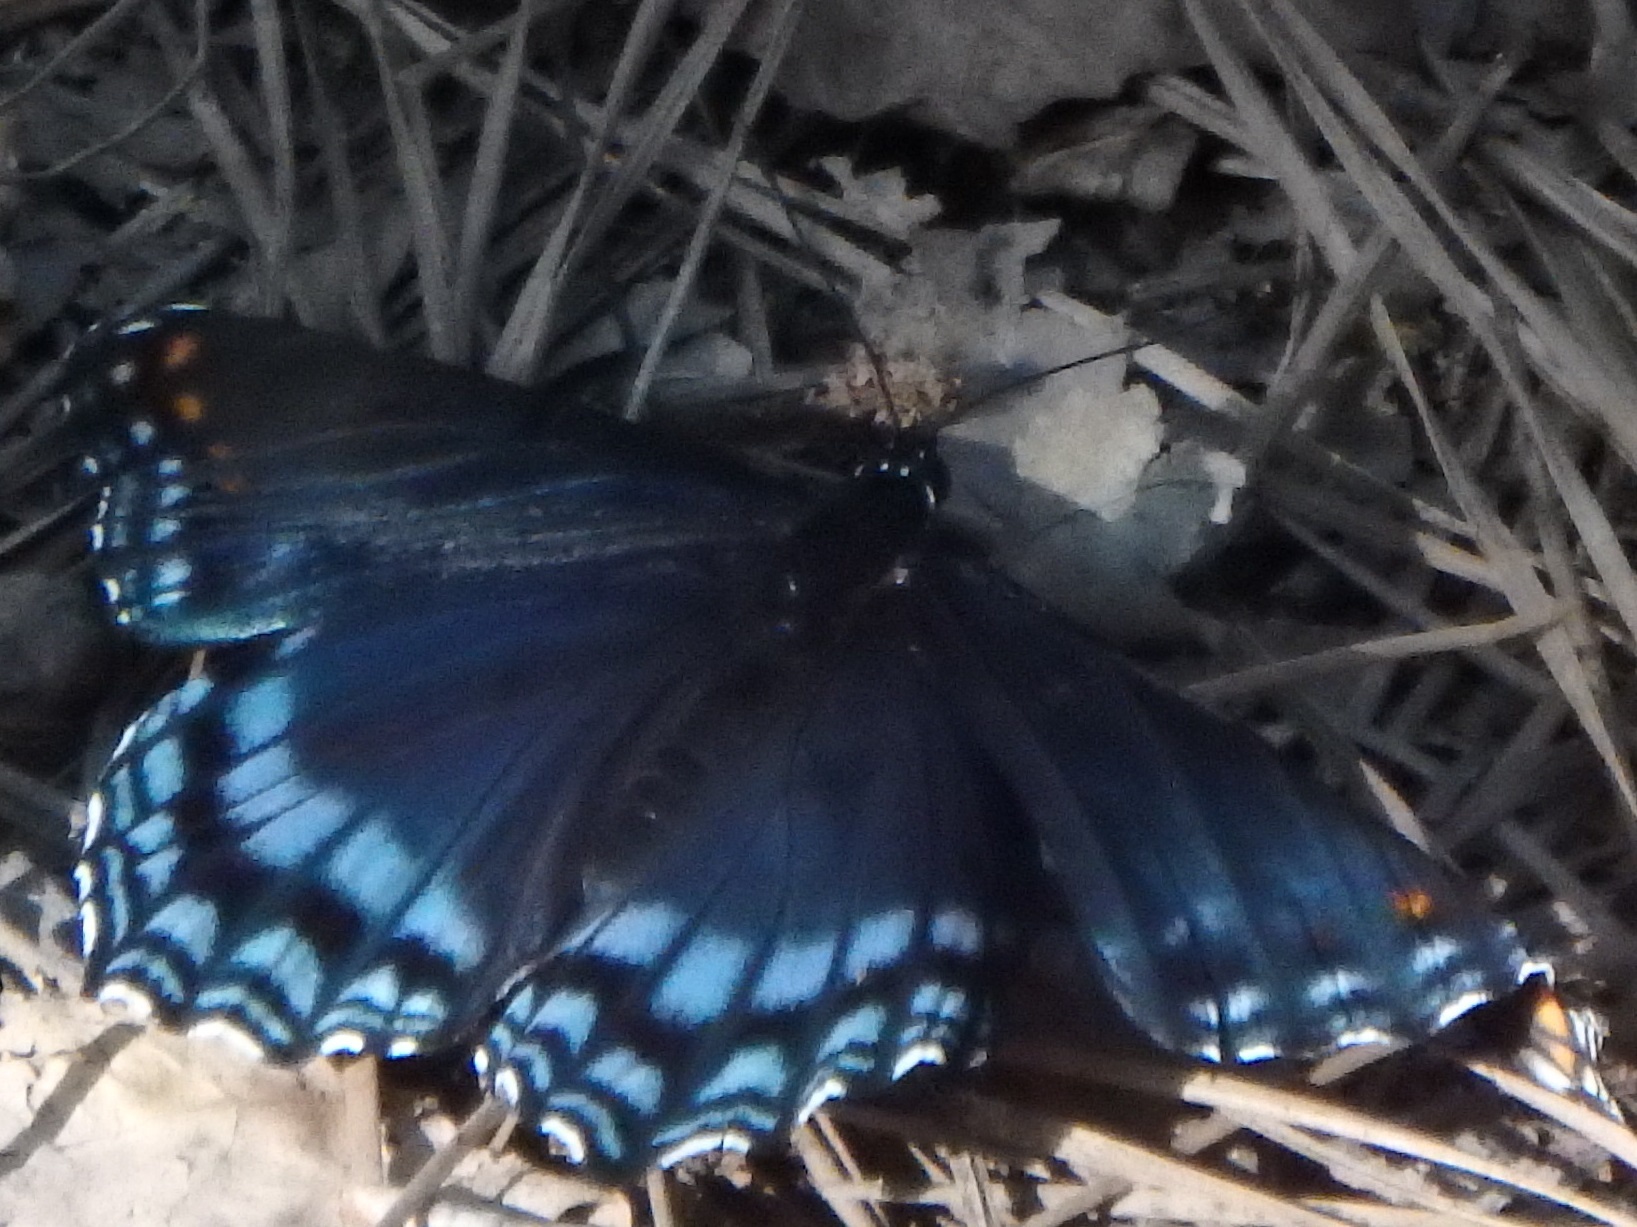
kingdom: Animalia
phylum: Arthropoda
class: Insecta
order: Lepidoptera
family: Nymphalidae
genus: Limenitis
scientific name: Limenitis arthemis
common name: Red-spotted admiral
